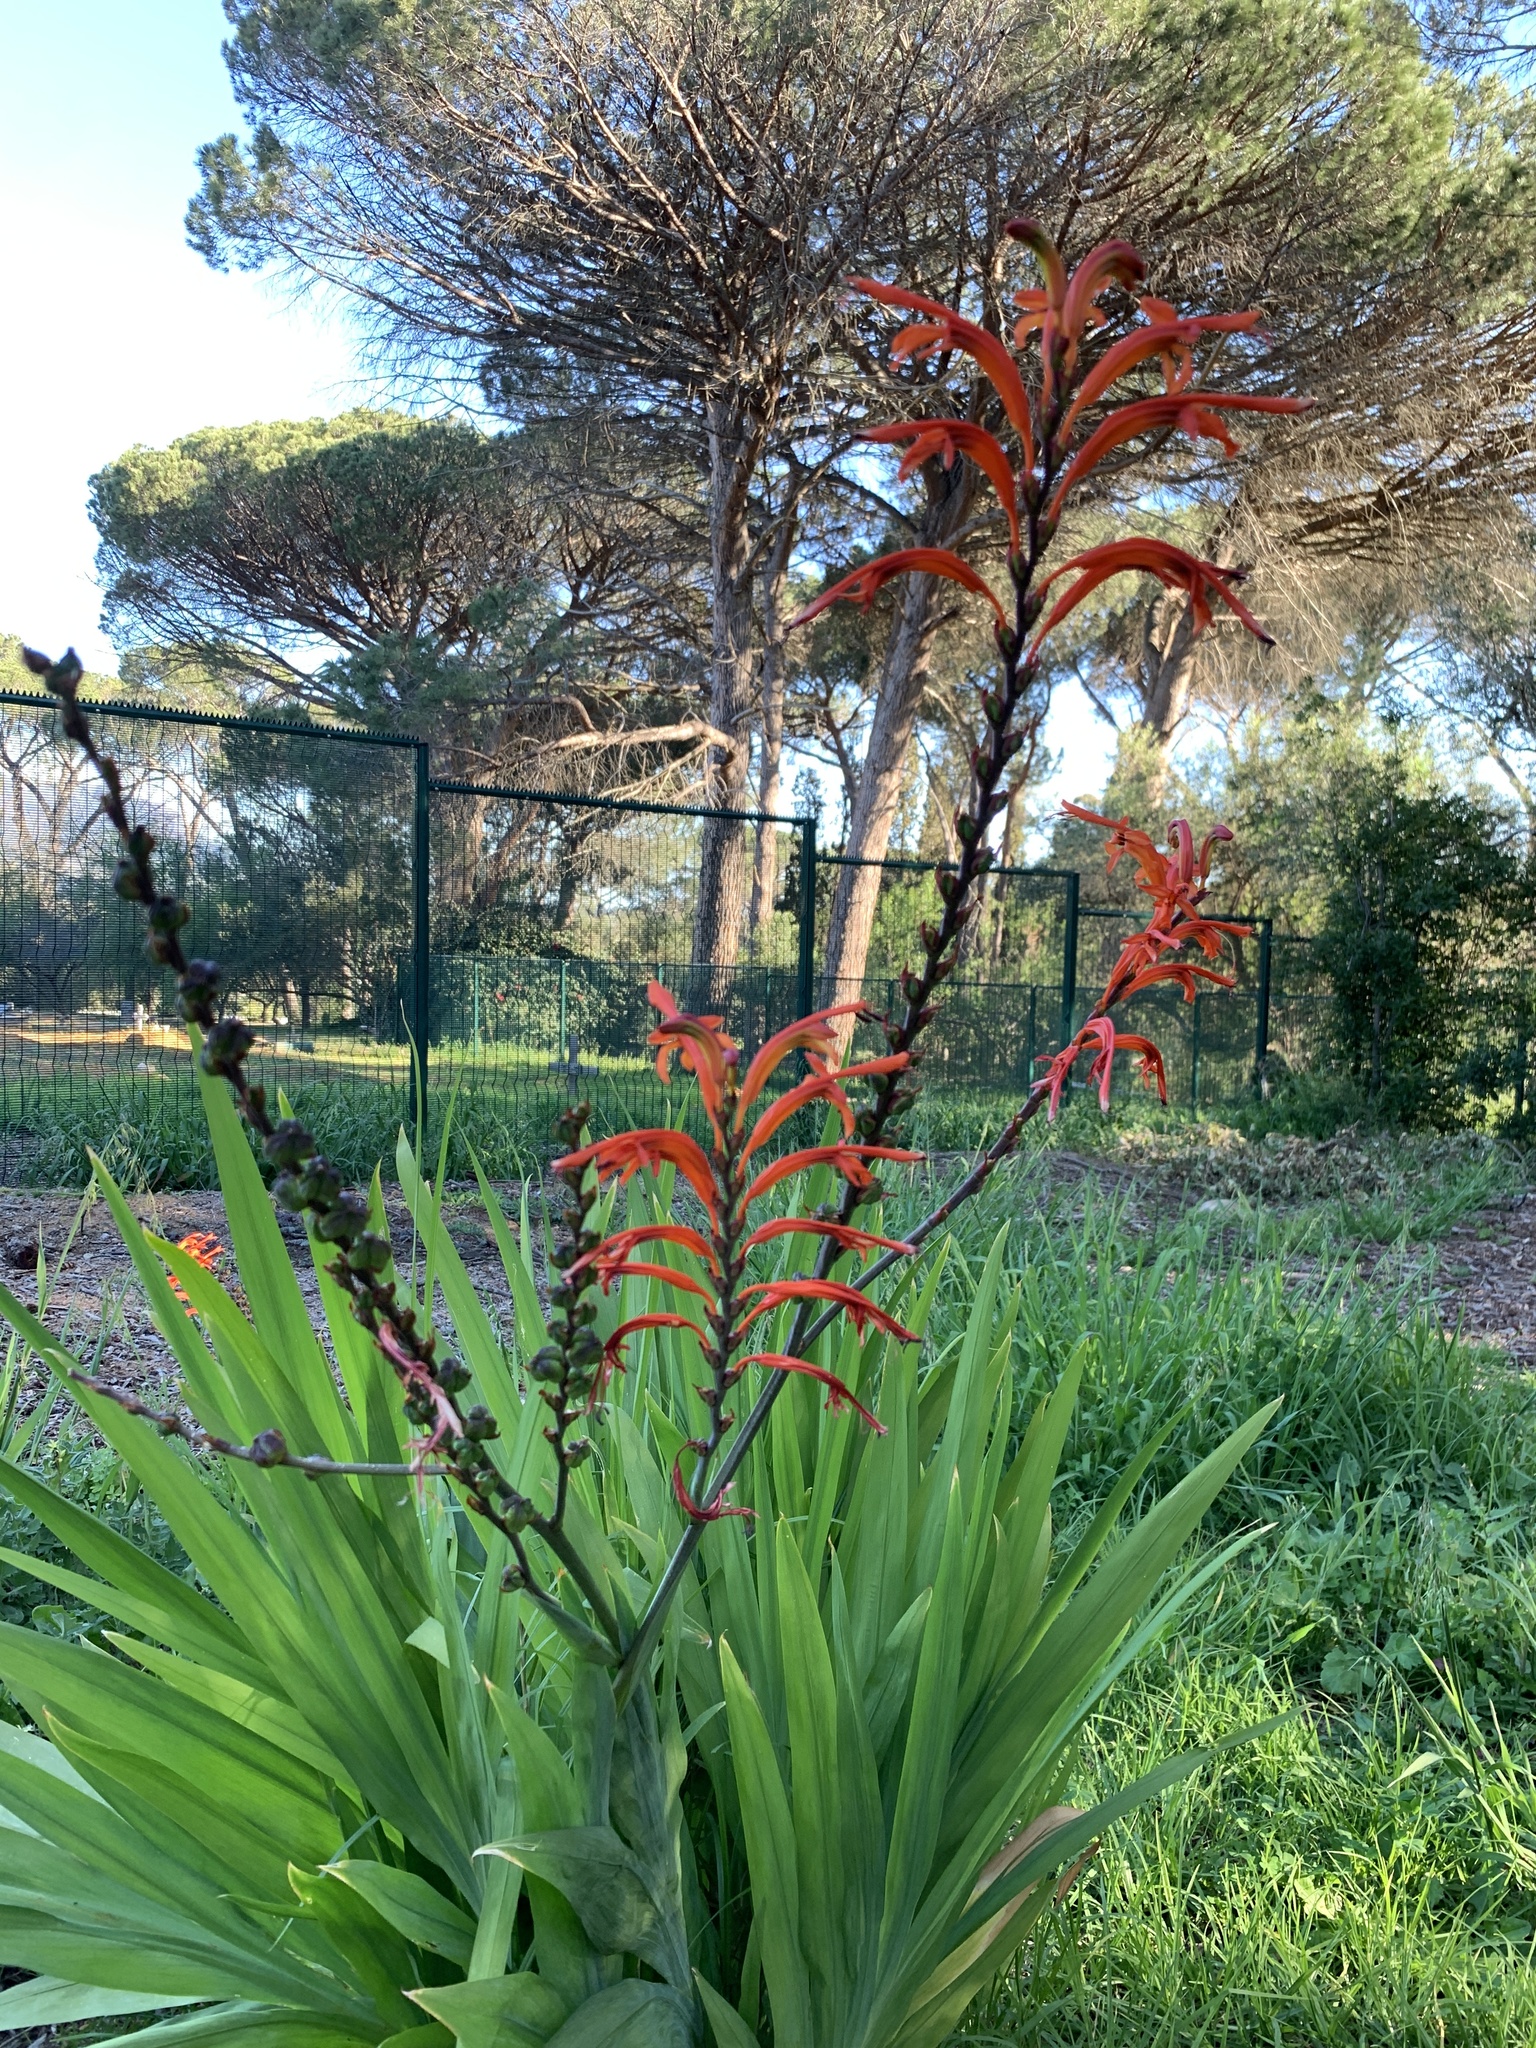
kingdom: Plantae
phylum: Tracheophyta
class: Liliopsida
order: Asparagales
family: Iridaceae
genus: Chasmanthe
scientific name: Chasmanthe floribunda
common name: African cornflag
